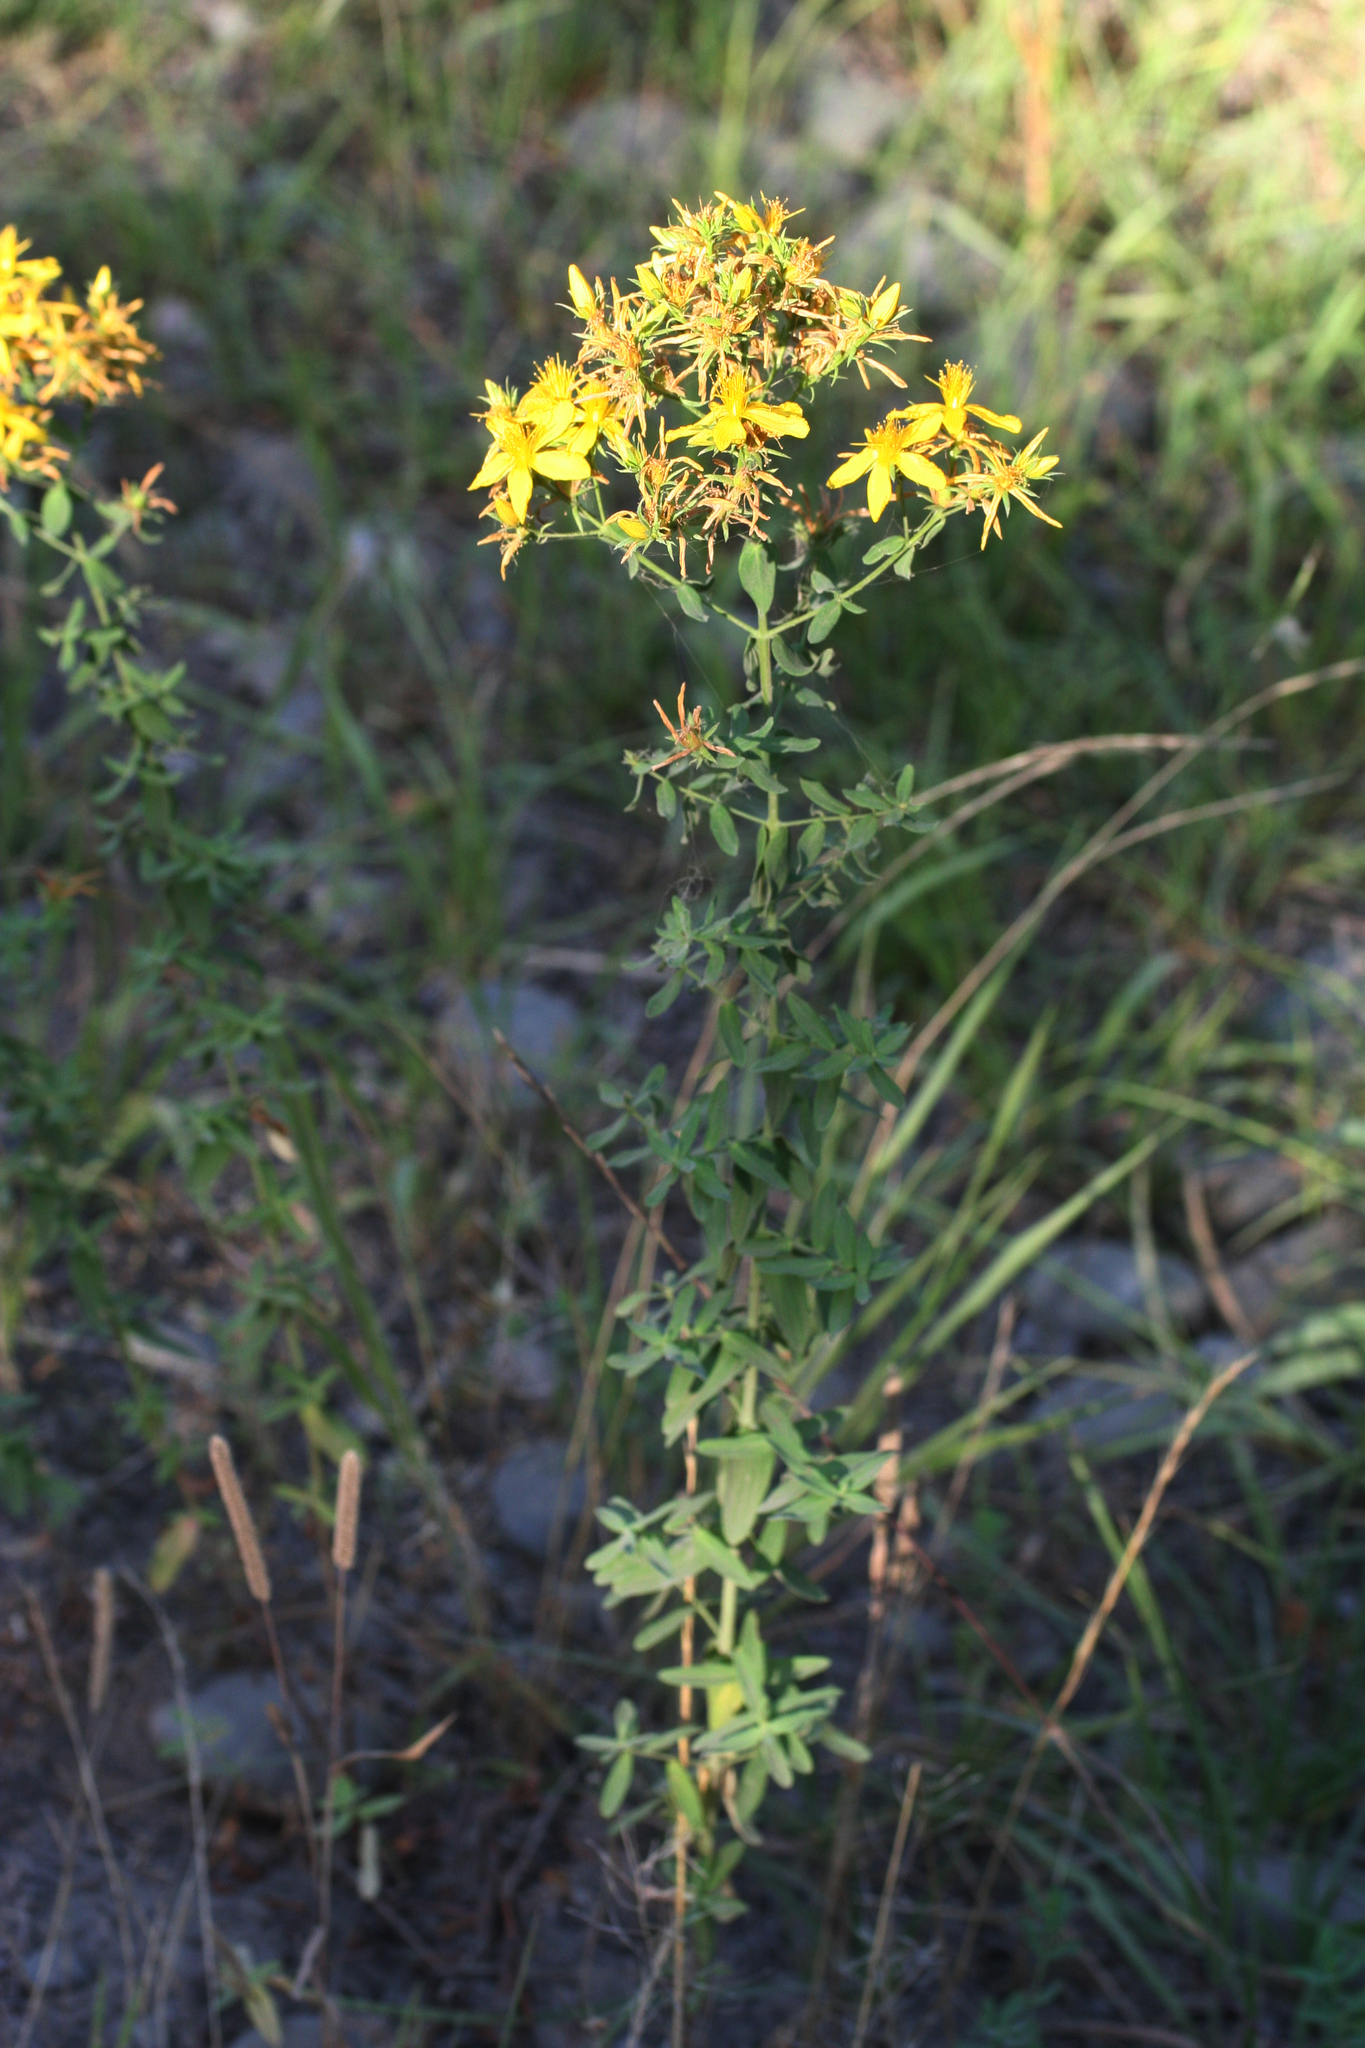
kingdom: Plantae
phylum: Tracheophyta
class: Magnoliopsida
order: Malpighiales
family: Hypericaceae
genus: Hypericum
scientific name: Hypericum perforatum
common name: Common st. johnswort
